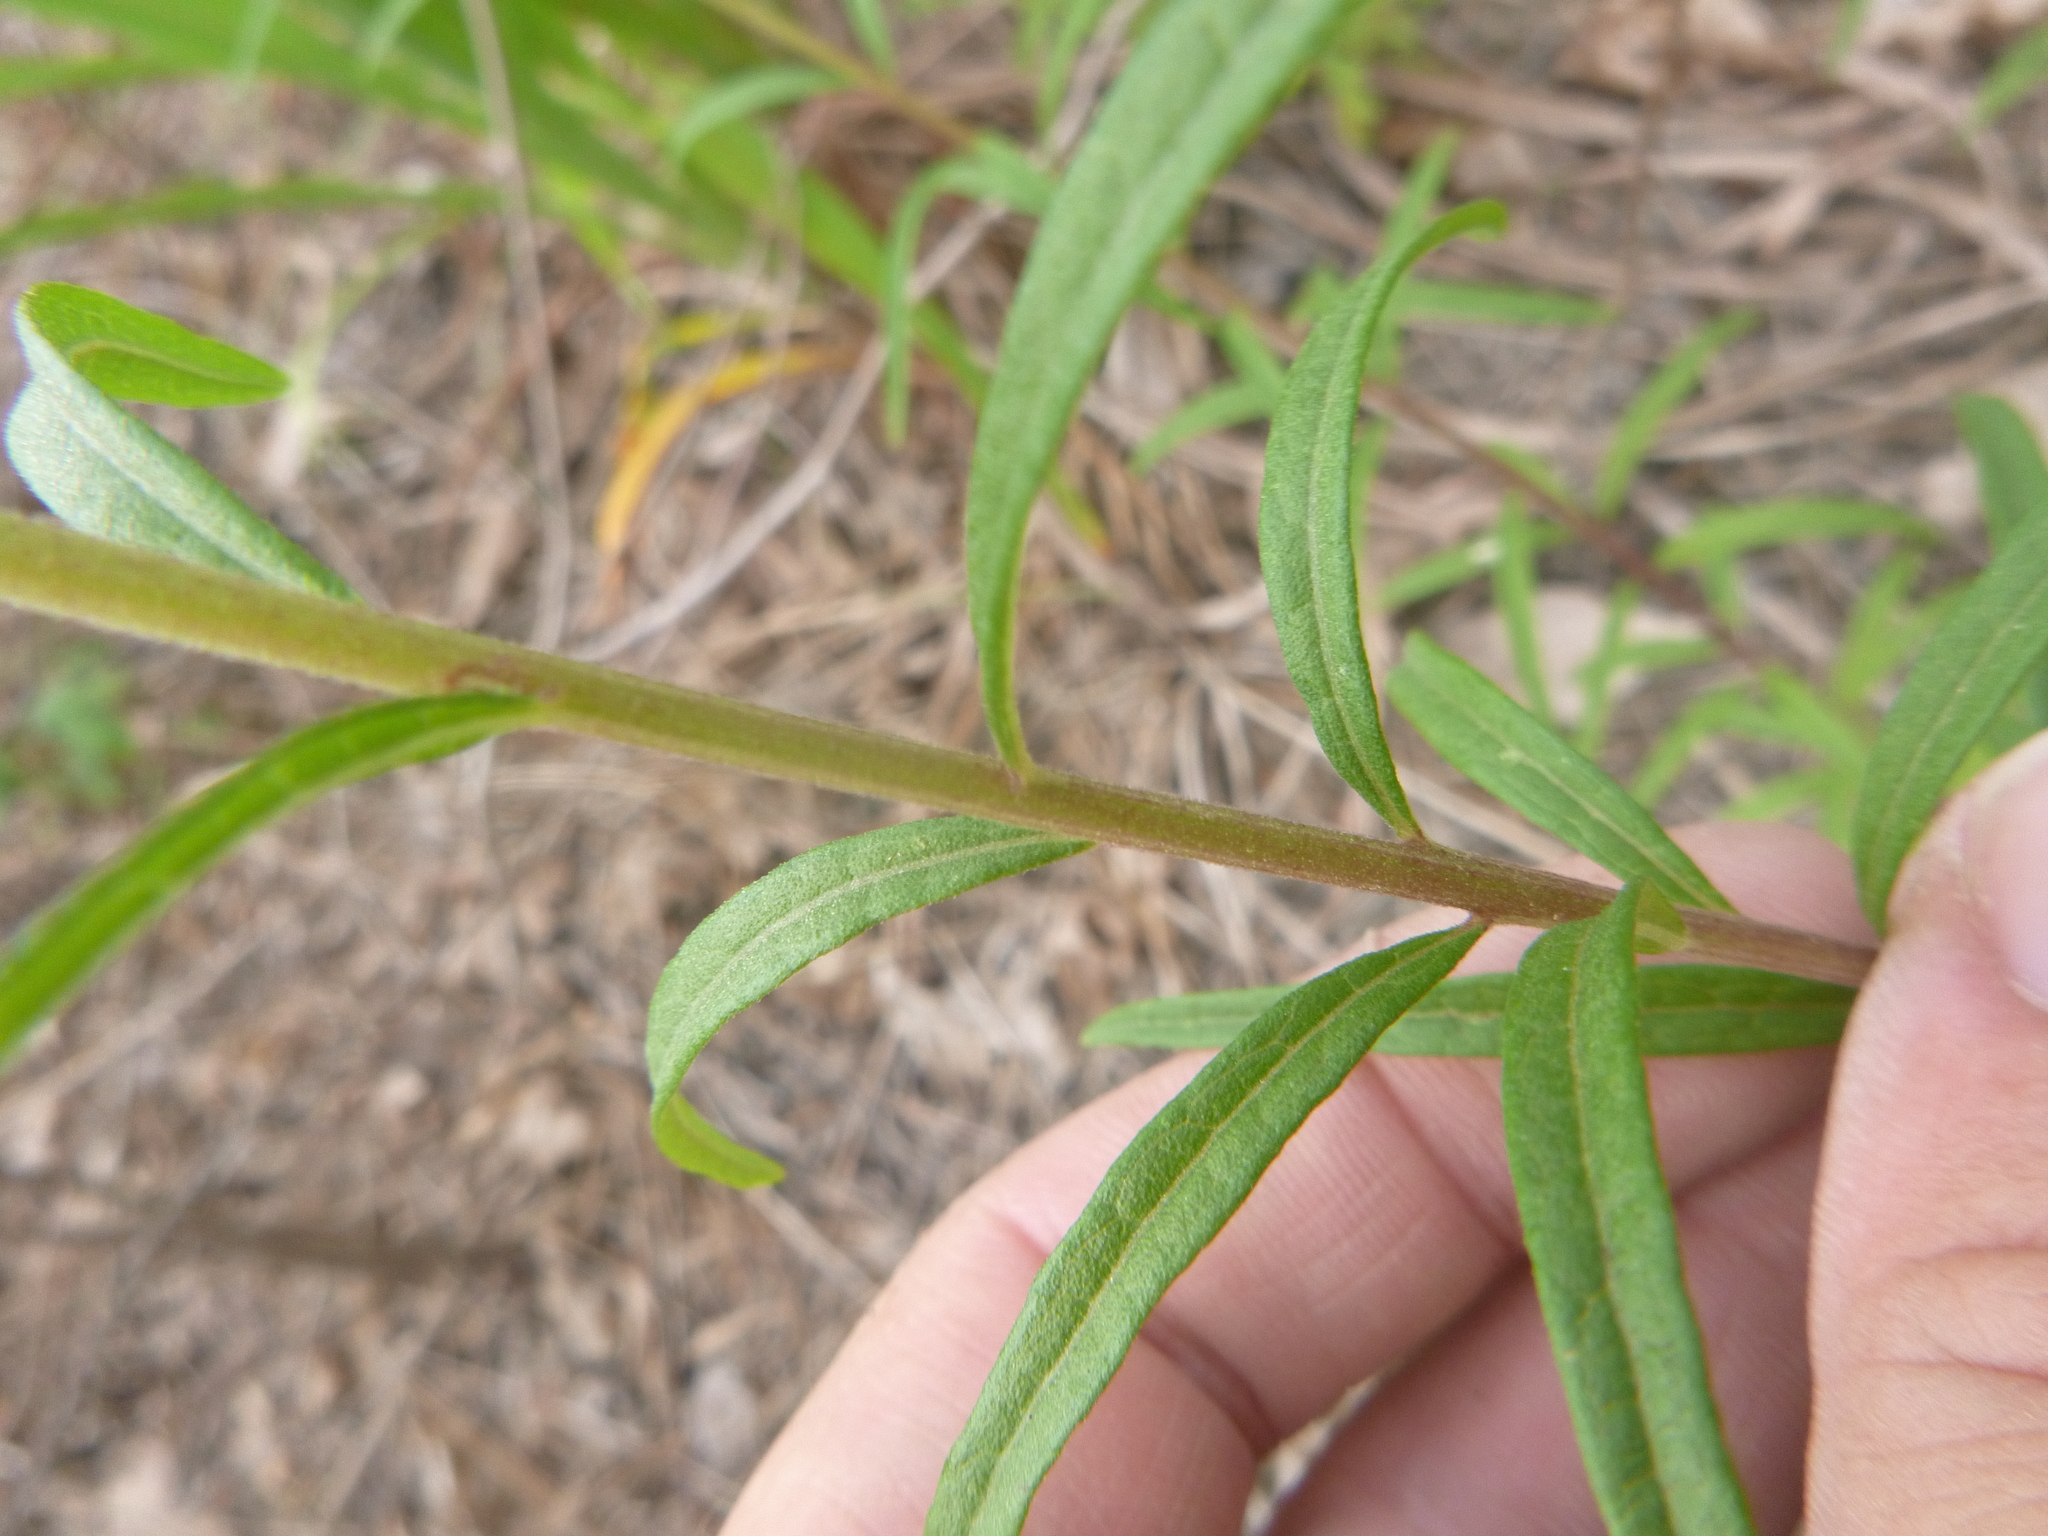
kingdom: Plantae
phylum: Tracheophyta
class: Magnoliopsida
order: Asterales
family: Asteraceae
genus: Brickellia
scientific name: Brickellia eupatorioides
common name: False boneset
